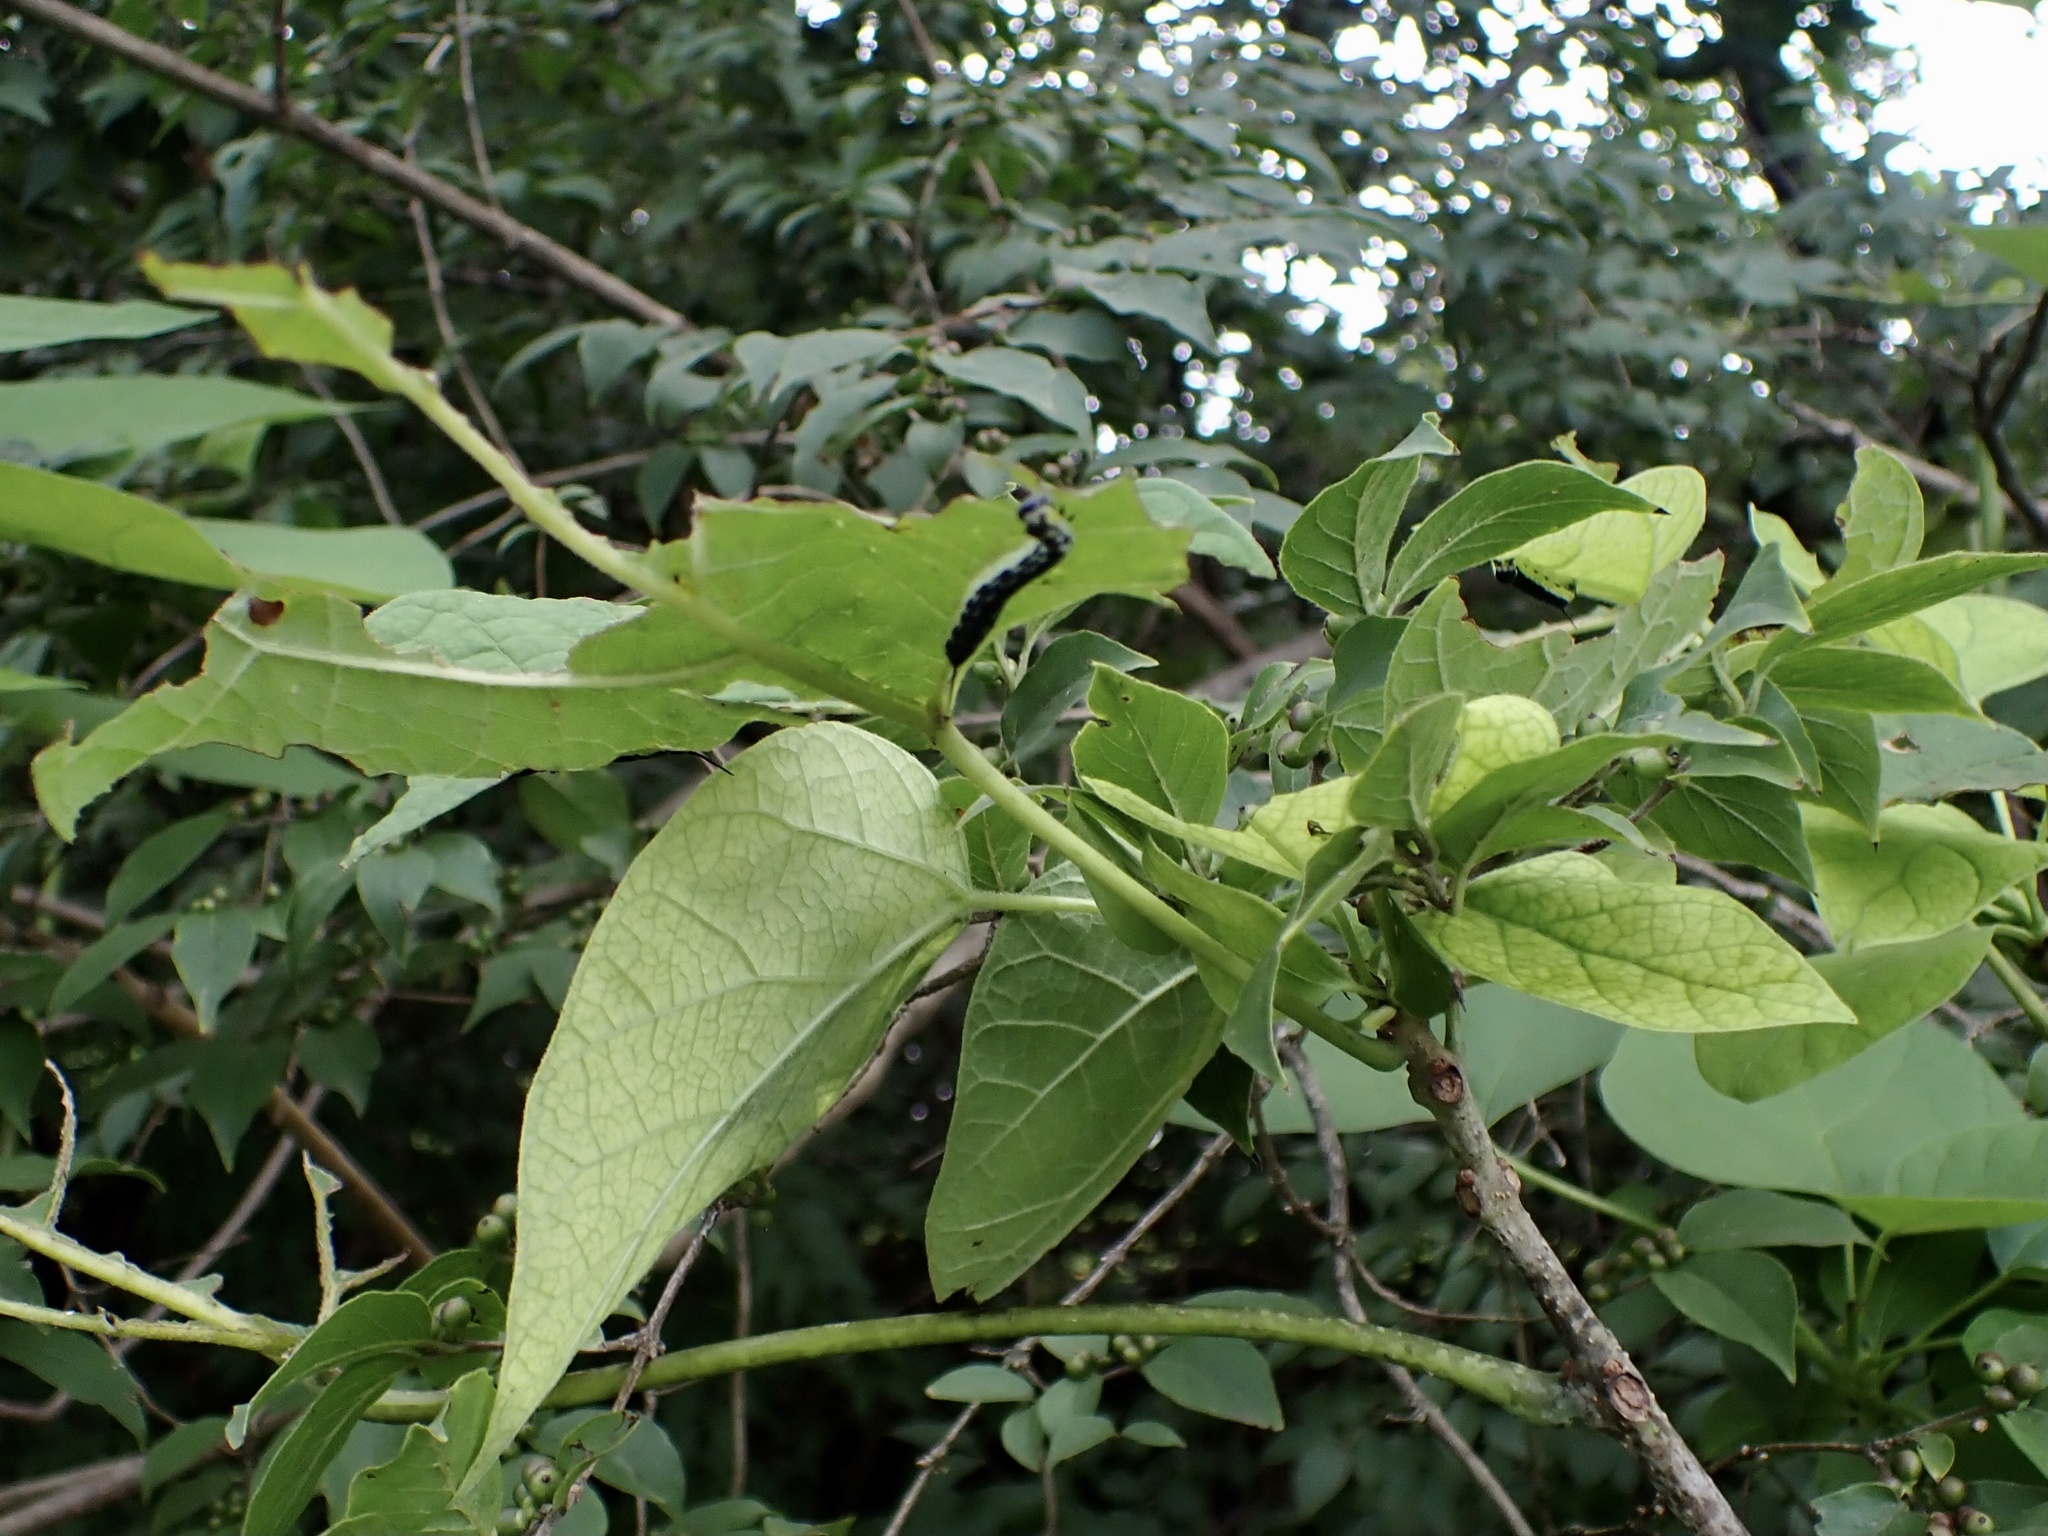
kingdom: Animalia
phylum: Arthropoda
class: Insecta
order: Lepidoptera
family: Sphingidae
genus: Ceratomia
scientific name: Ceratomia catalpae
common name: Catalpa hornworm
